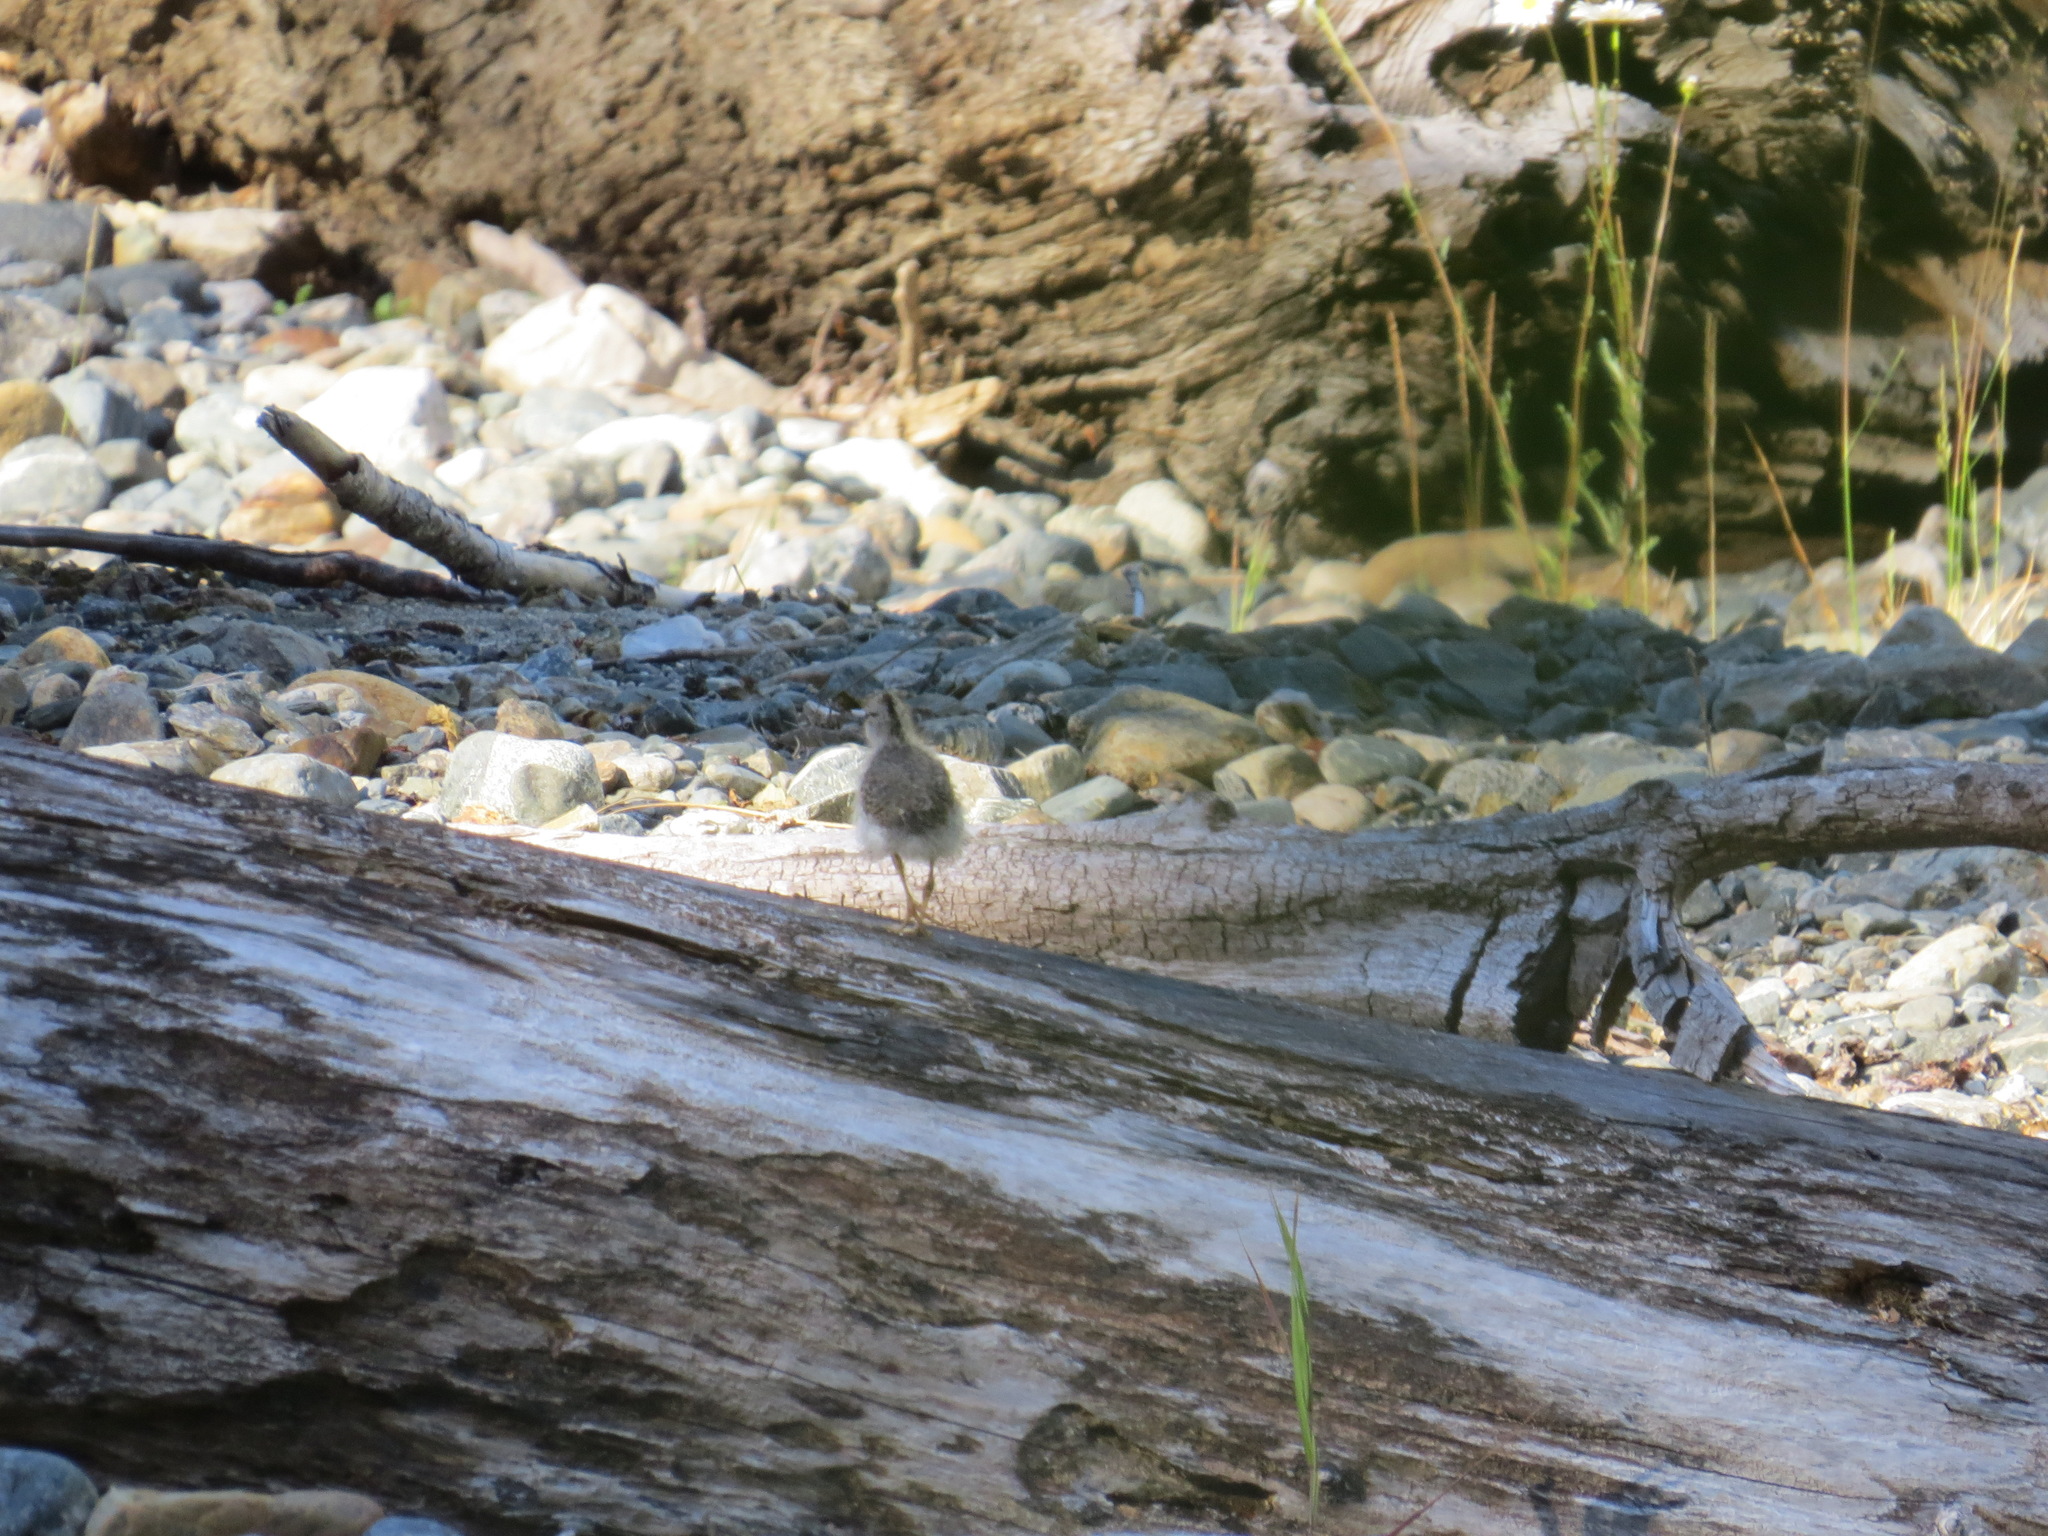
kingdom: Animalia
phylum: Chordata
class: Aves
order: Charadriiformes
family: Scolopacidae
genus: Actitis
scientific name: Actitis macularius
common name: Spotted sandpiper
